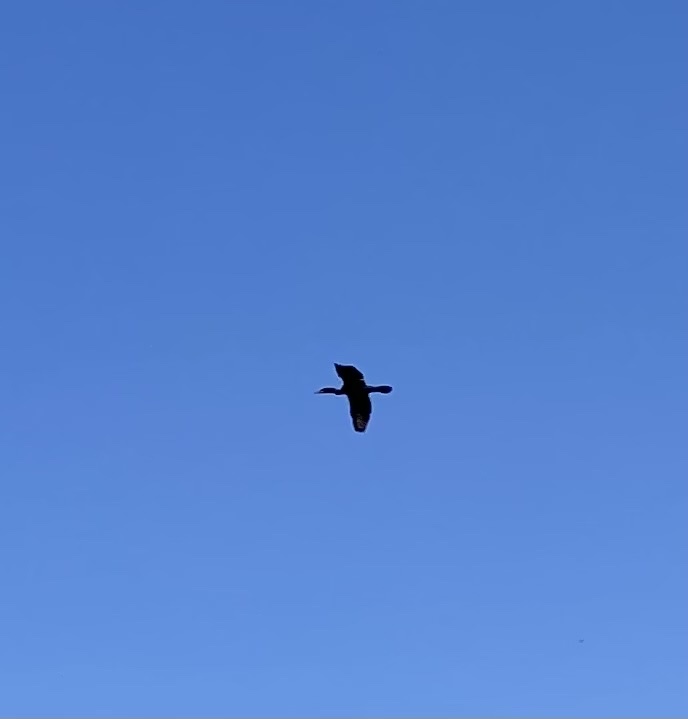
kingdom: Animalia
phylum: Chordata
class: Aves
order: Suliformes
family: Phalacrocoracidae
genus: Phalacrocorax
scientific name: Phalacrocorax auritus
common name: Double-crested cormorant
